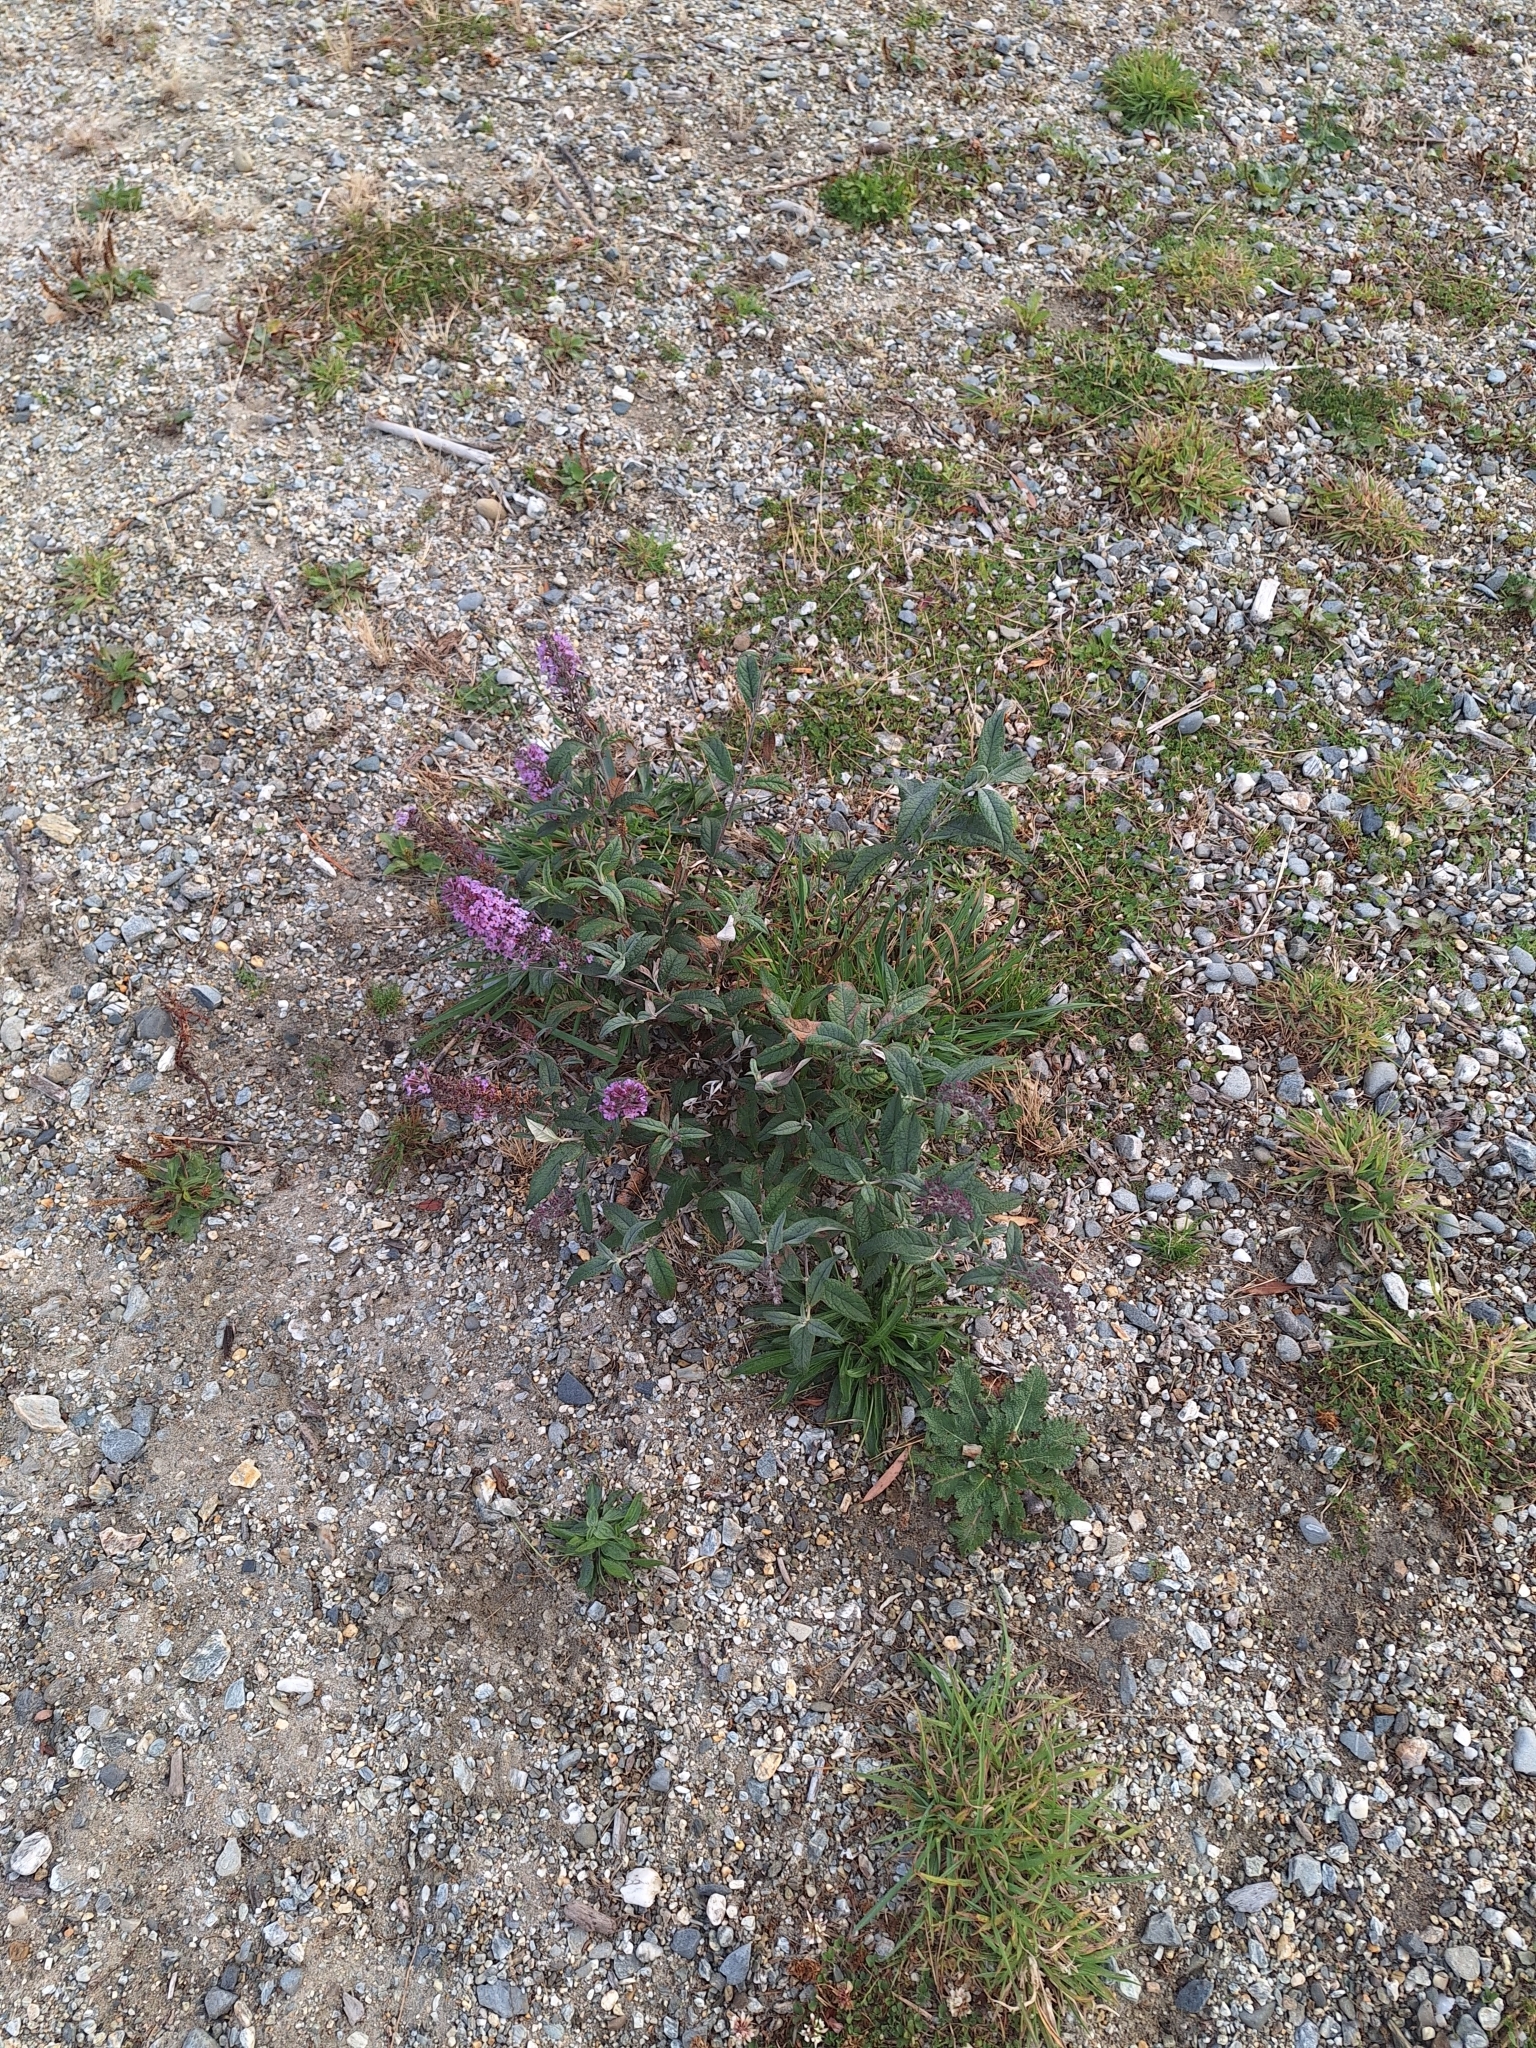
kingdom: Plantae
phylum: Tracheophyta
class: Magnoliopsida
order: Lamiales
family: Scrophulariaceae
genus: Buddleja
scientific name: Buddleja davidii
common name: Butterfly-bush
